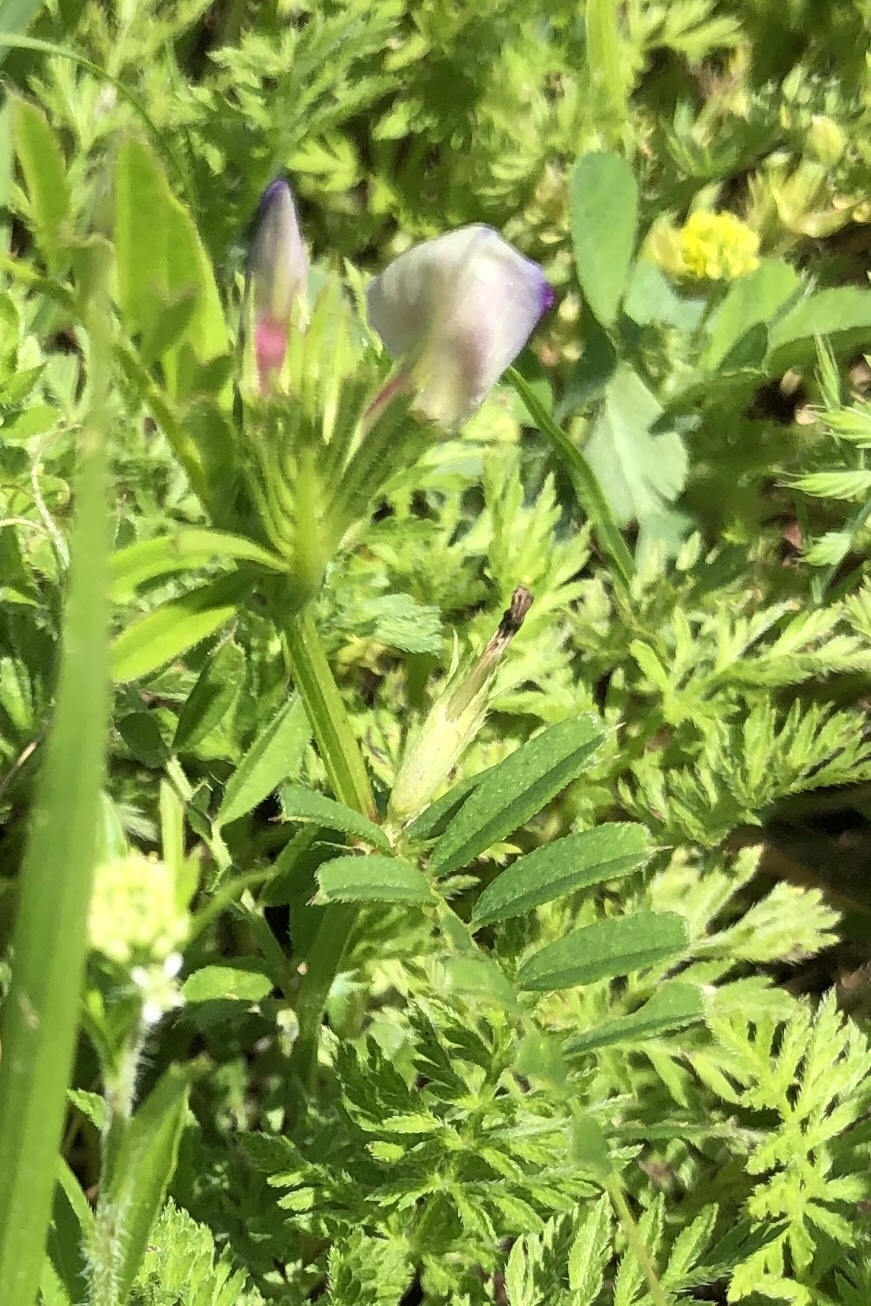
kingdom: Plantae
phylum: Tracheophyta
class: Magnoliopsida
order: Fabales
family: Fabaceae
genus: Vicia
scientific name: Vicia sativa
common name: Garden vetch
